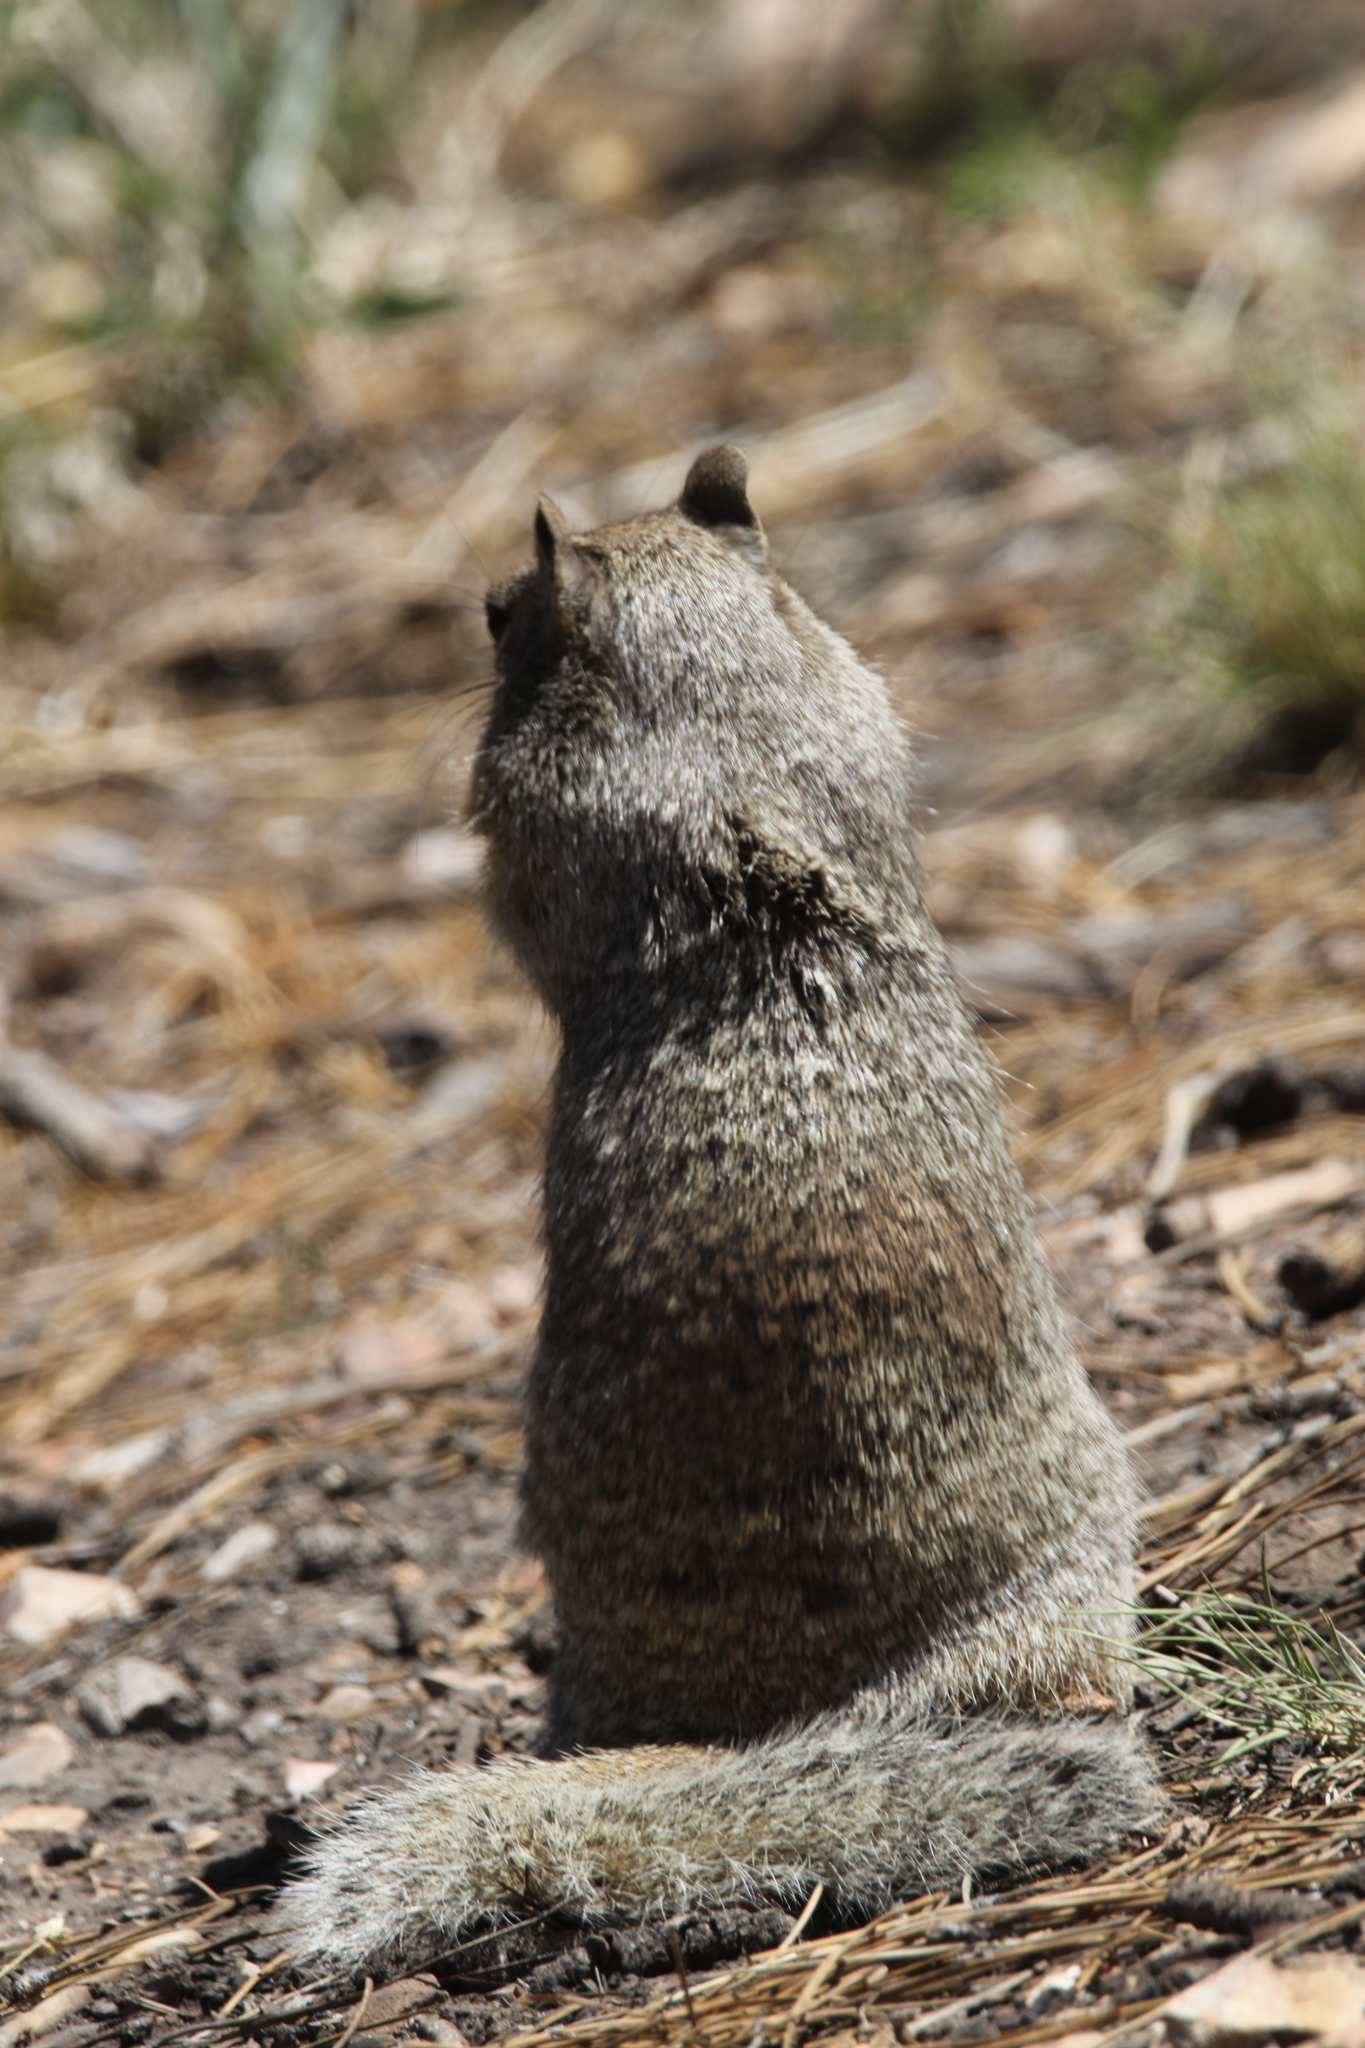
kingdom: Animalia
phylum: Chordata
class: Mammalia
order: Rodentia
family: Sciuridae
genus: Otospermophilus
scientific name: Otospermophilus variegatus
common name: Rock squirrel
